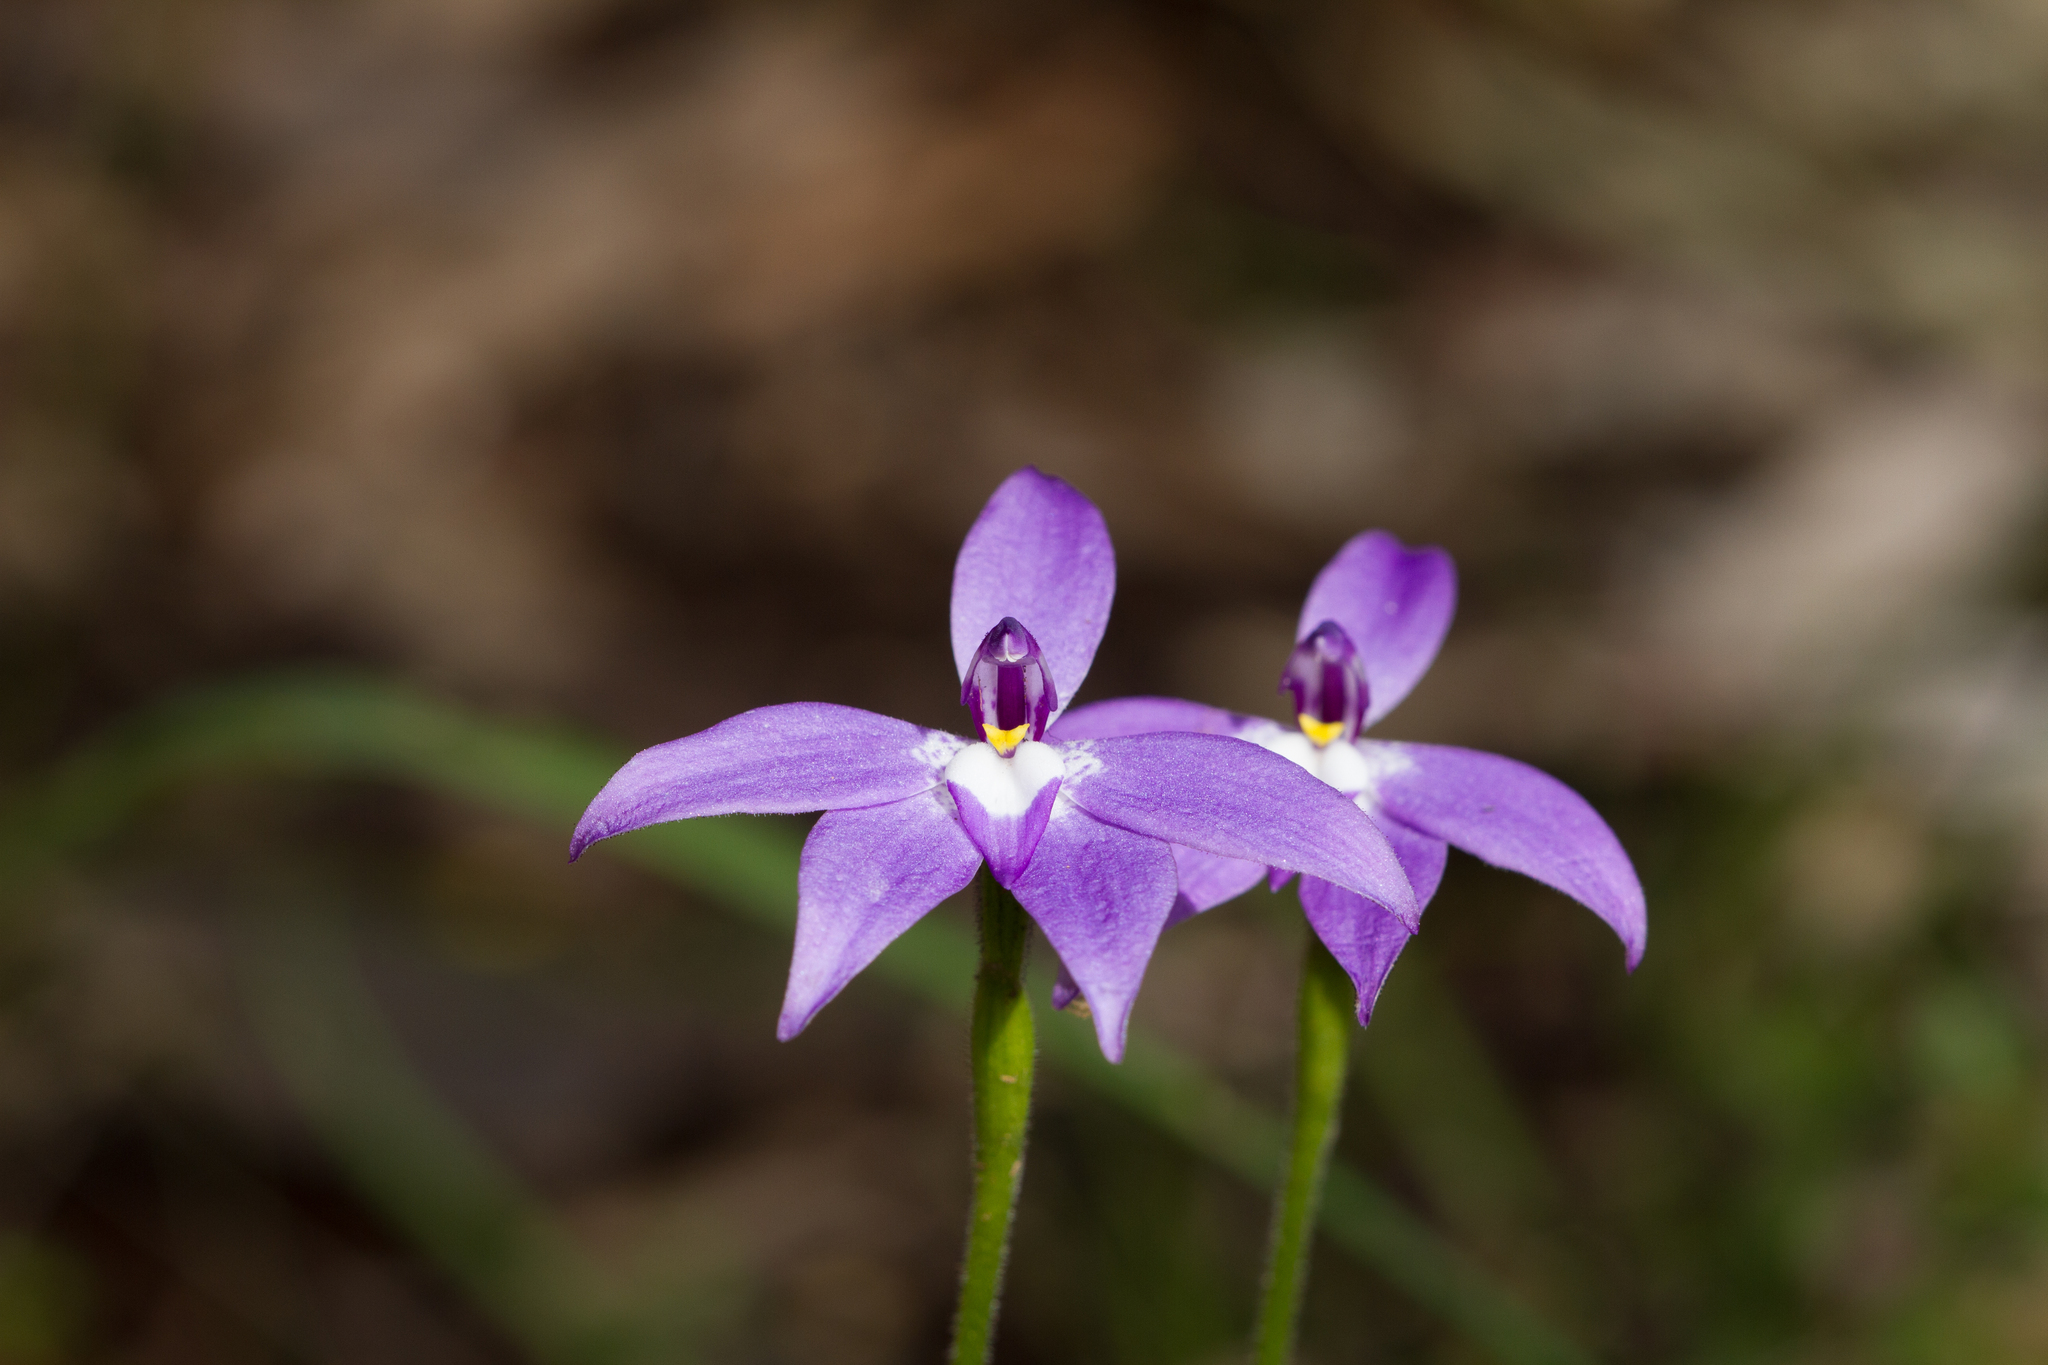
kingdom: Plantae
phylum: Tracheophyta
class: Liliopsida
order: Asparagales
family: Orchidaceae
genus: Caladenia
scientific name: Caladenia major
